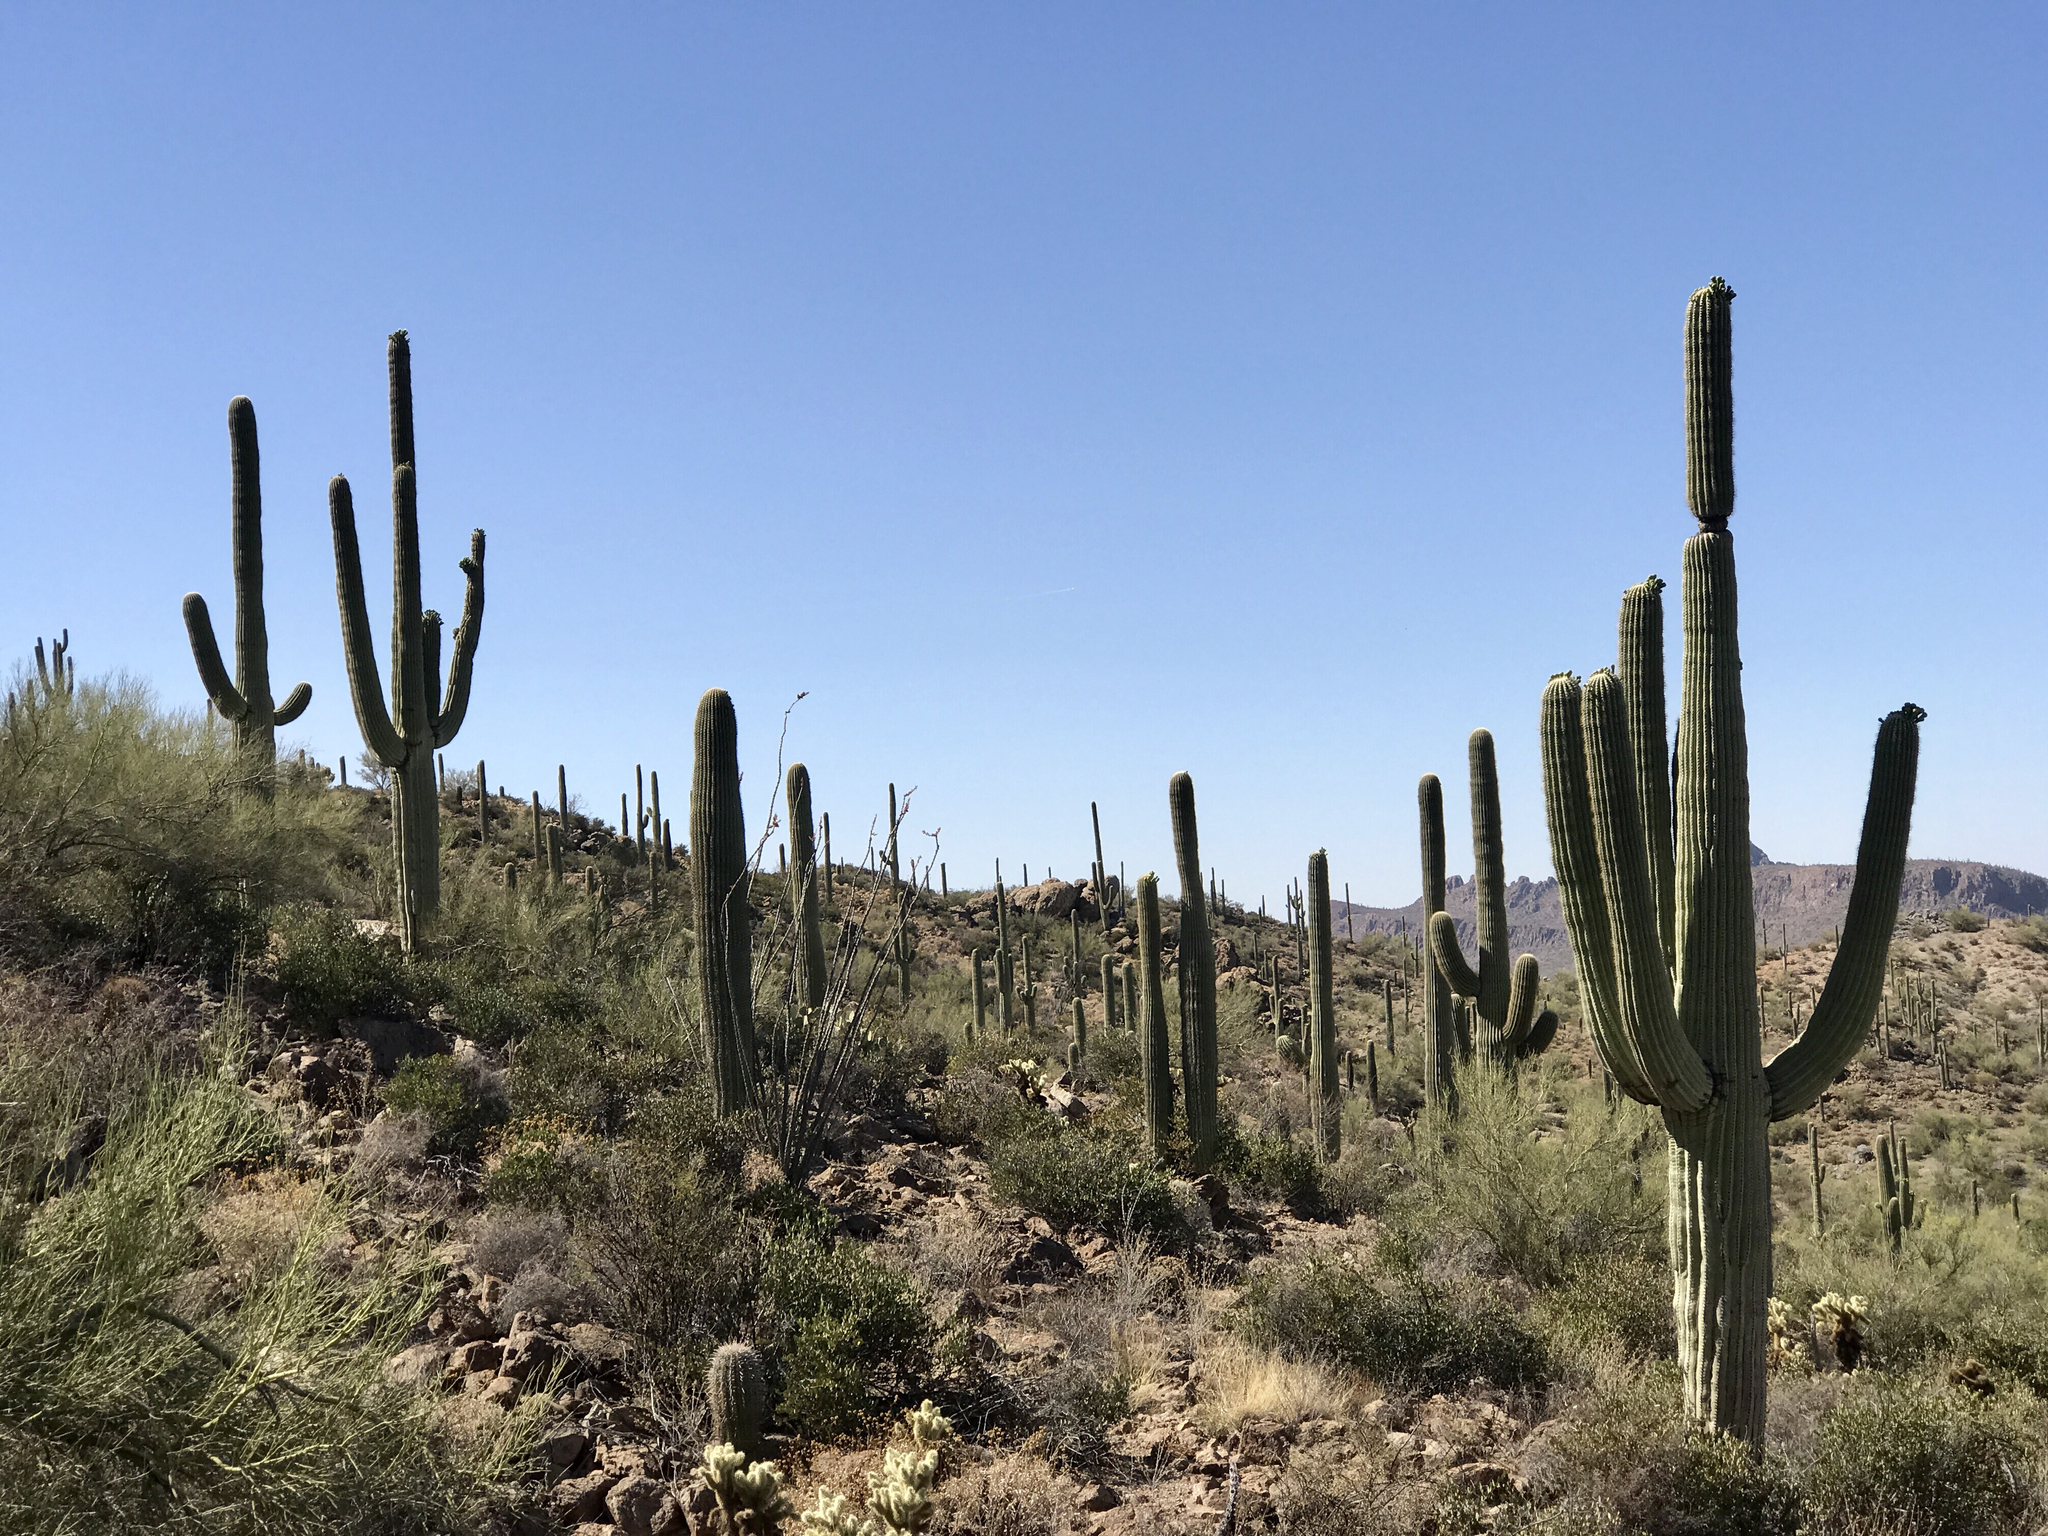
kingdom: Plantae
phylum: Tracheophyta
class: Magnoliopsida
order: Caryophyllales
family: Cactaceae
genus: Carnegiea
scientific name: Carnegiea gigantea
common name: Saguaro
